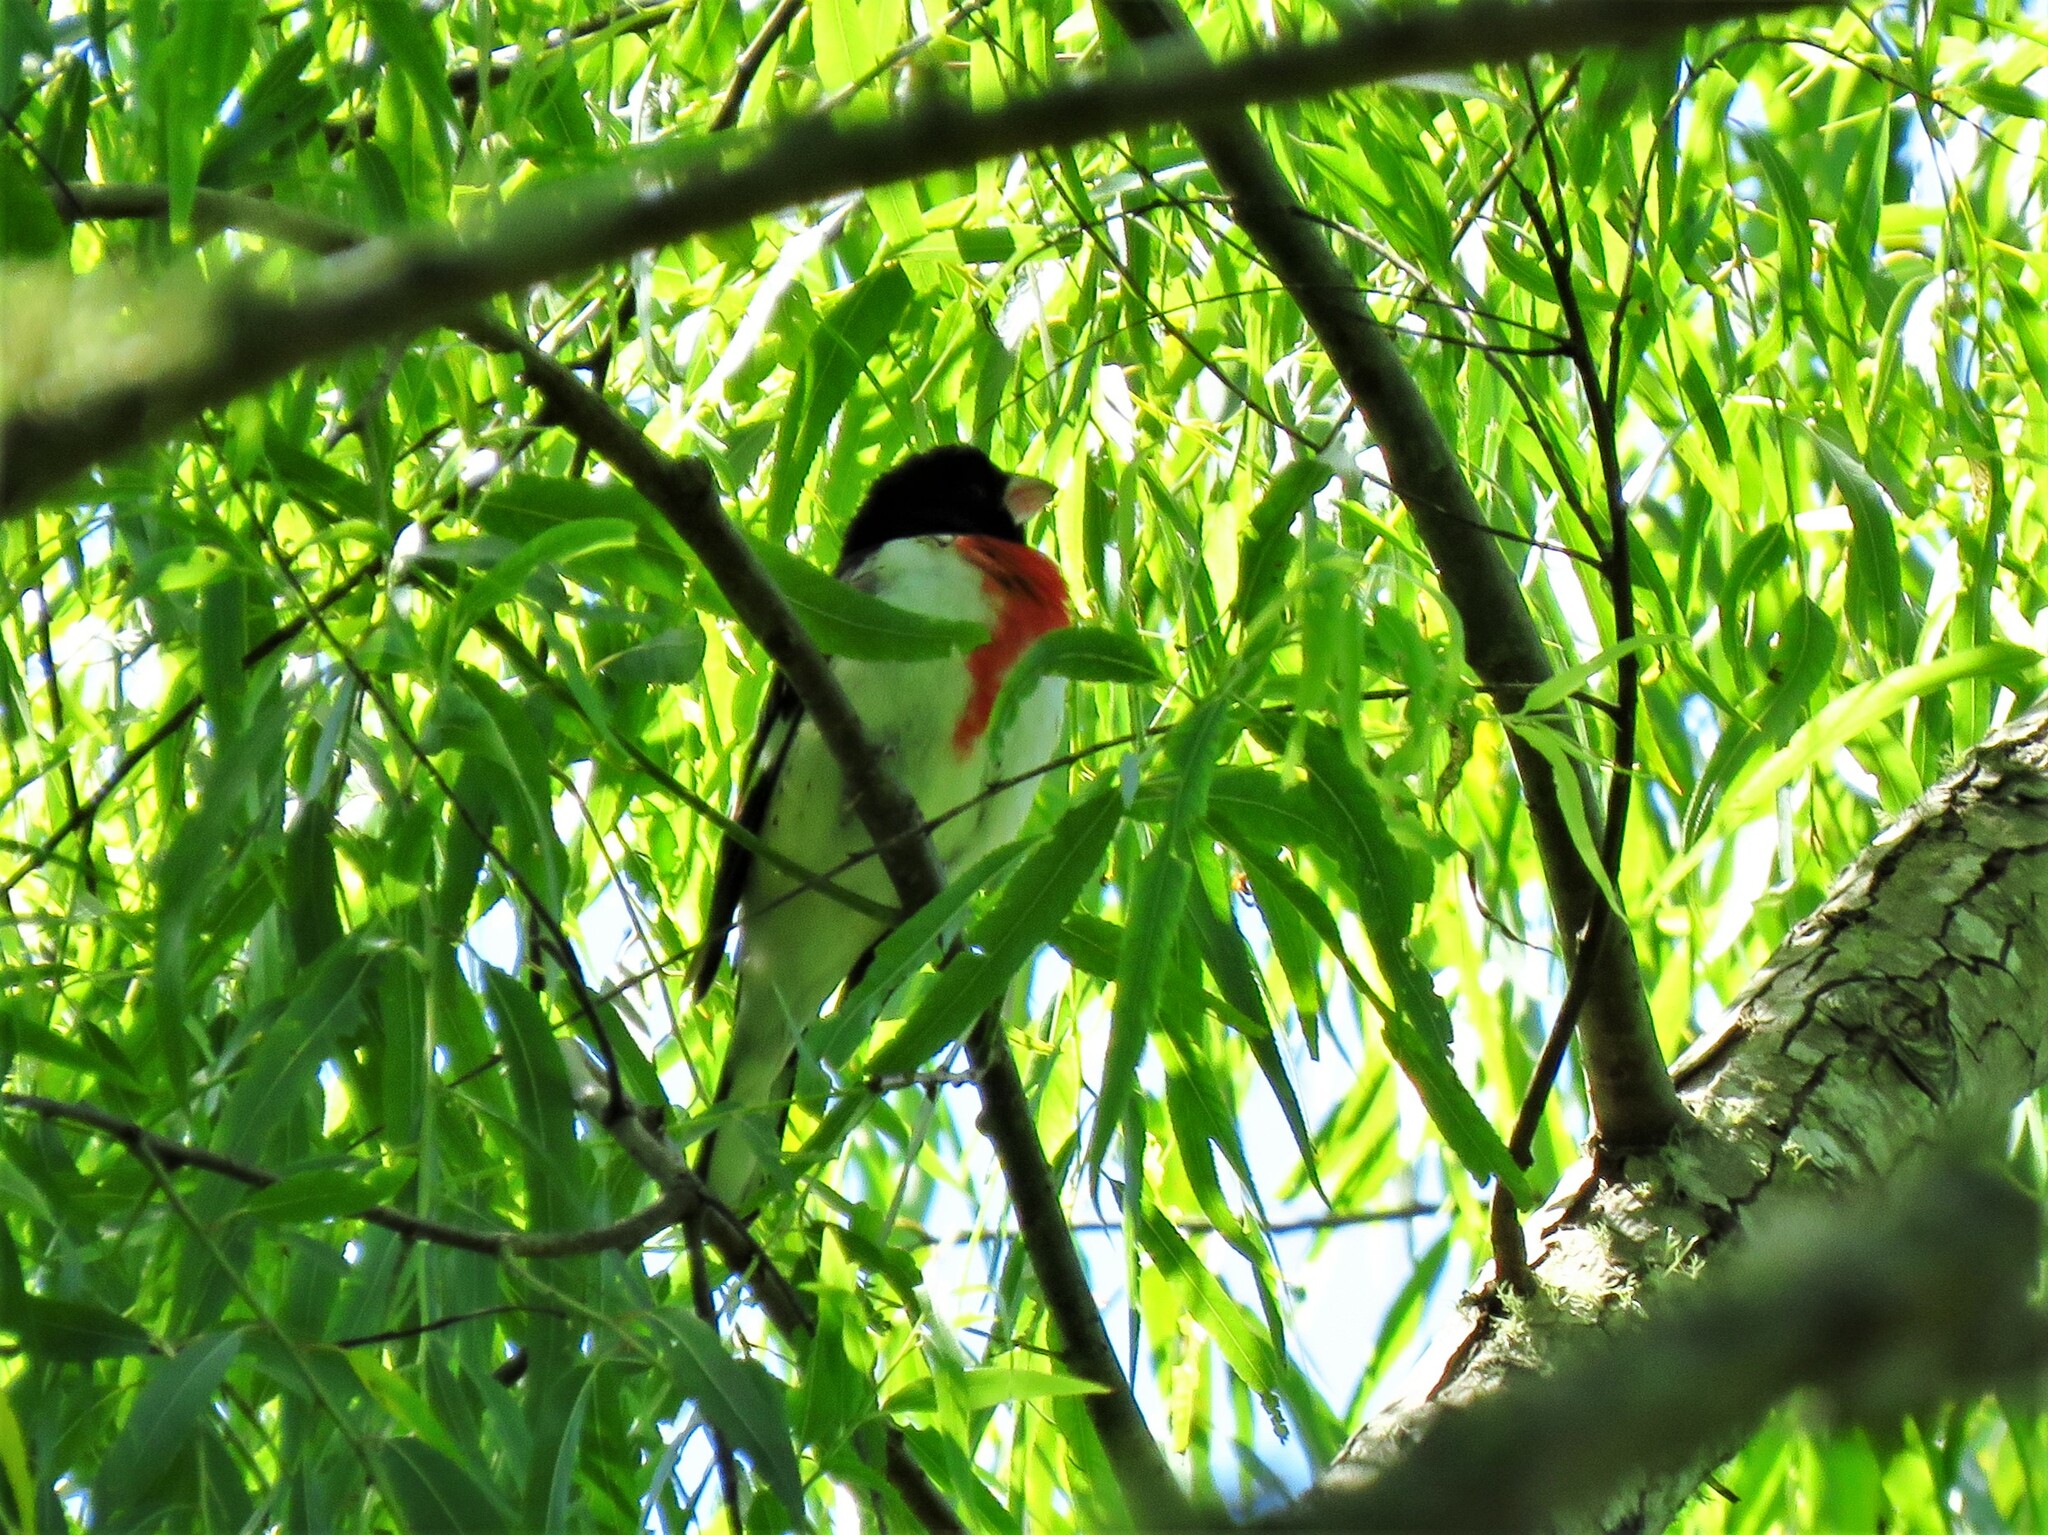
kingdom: Animalia
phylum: Chordata
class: Aves
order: Passeriformes
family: Cardinalidae
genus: Pheucticus
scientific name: Pheucticus ludovicianus
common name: Rose-breasted grosbeak
